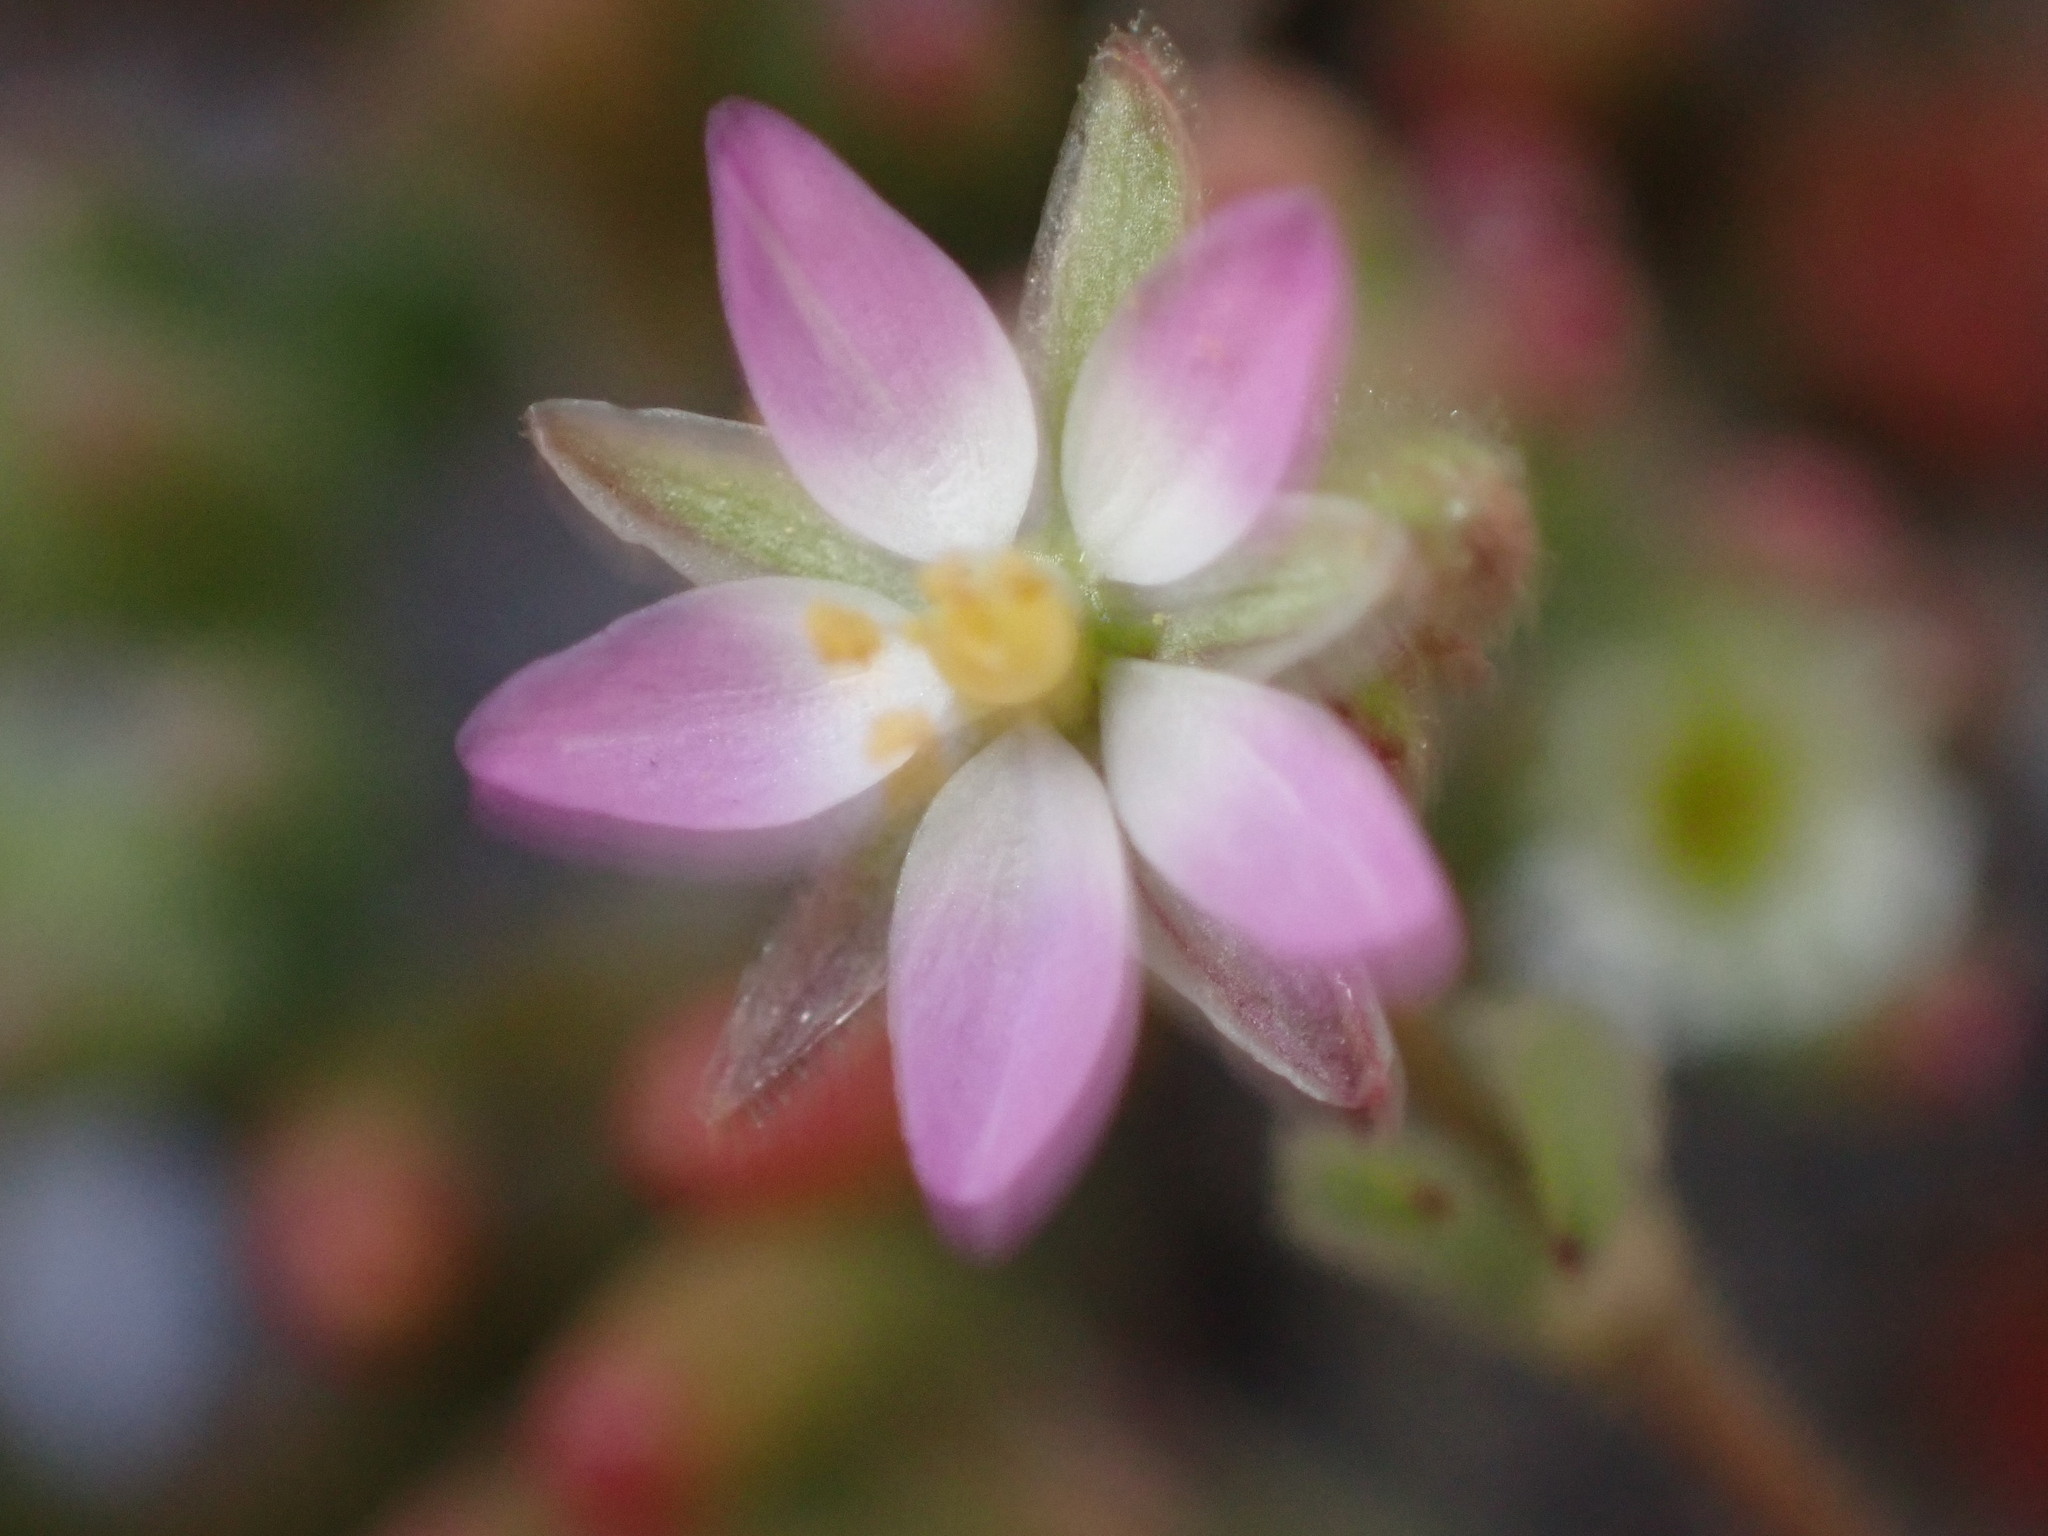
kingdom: Plantae
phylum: Tracheophyta
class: Magnoliopsida
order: Caryophyllales
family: Caryophyllaceae
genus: Spergularia
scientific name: Spergularia marina
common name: Lesser sea-spurrey
